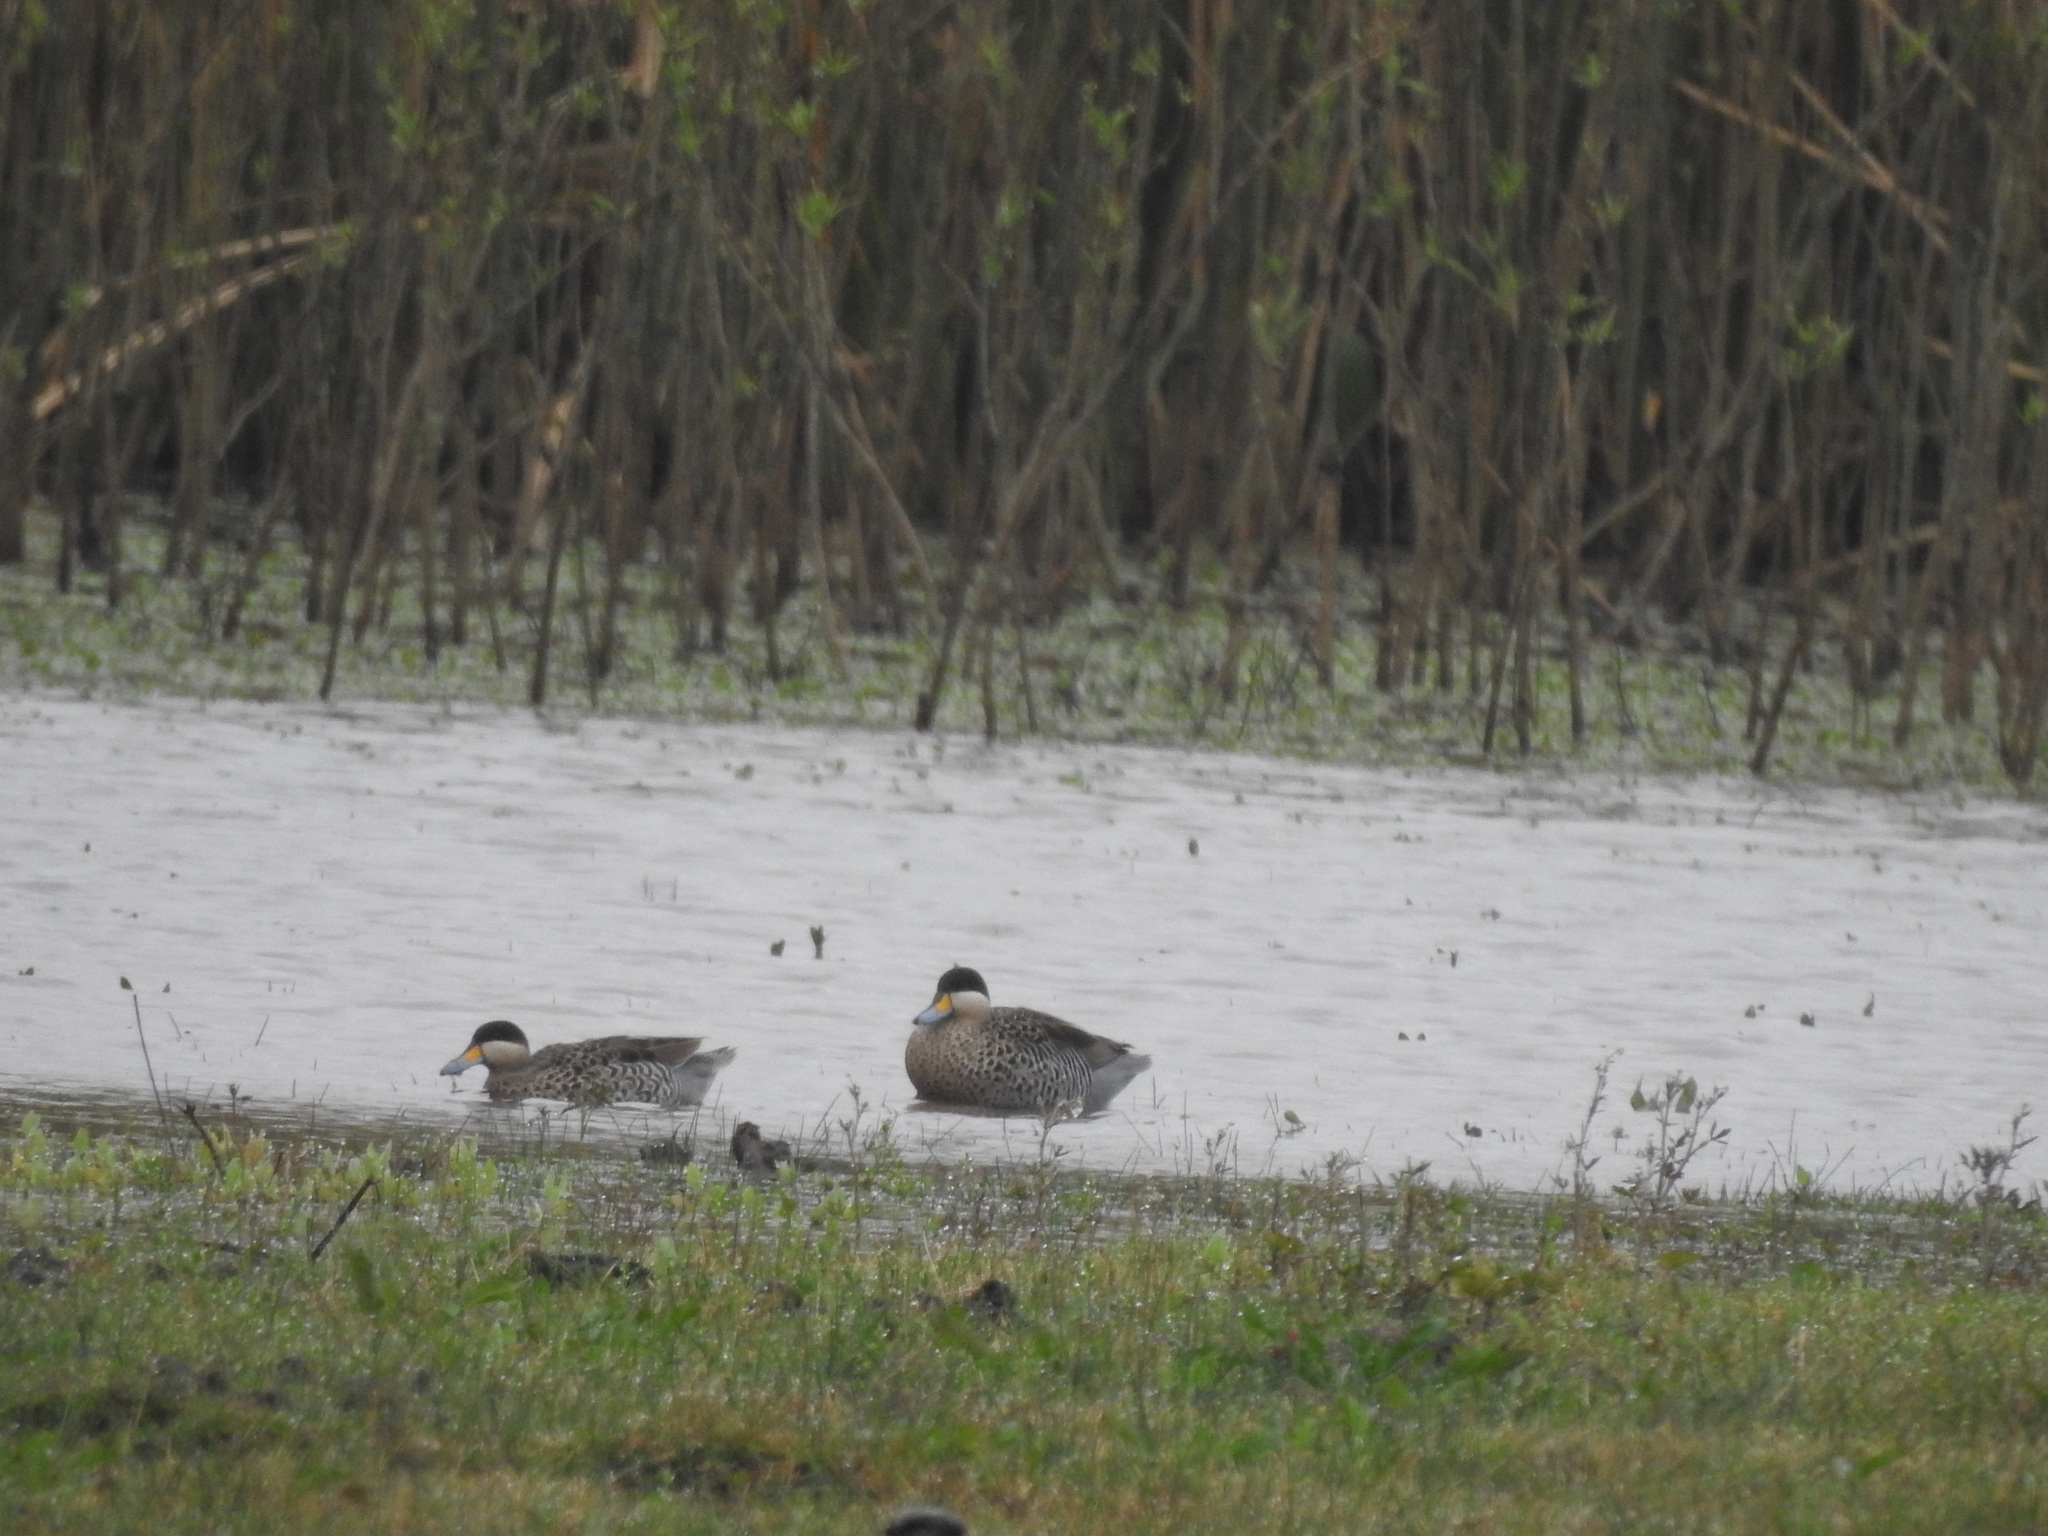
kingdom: Animalia
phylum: Chordata
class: Aves
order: Anseriformes
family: Anatidae
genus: Spatula
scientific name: Spatula versicolor
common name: Silver teal
